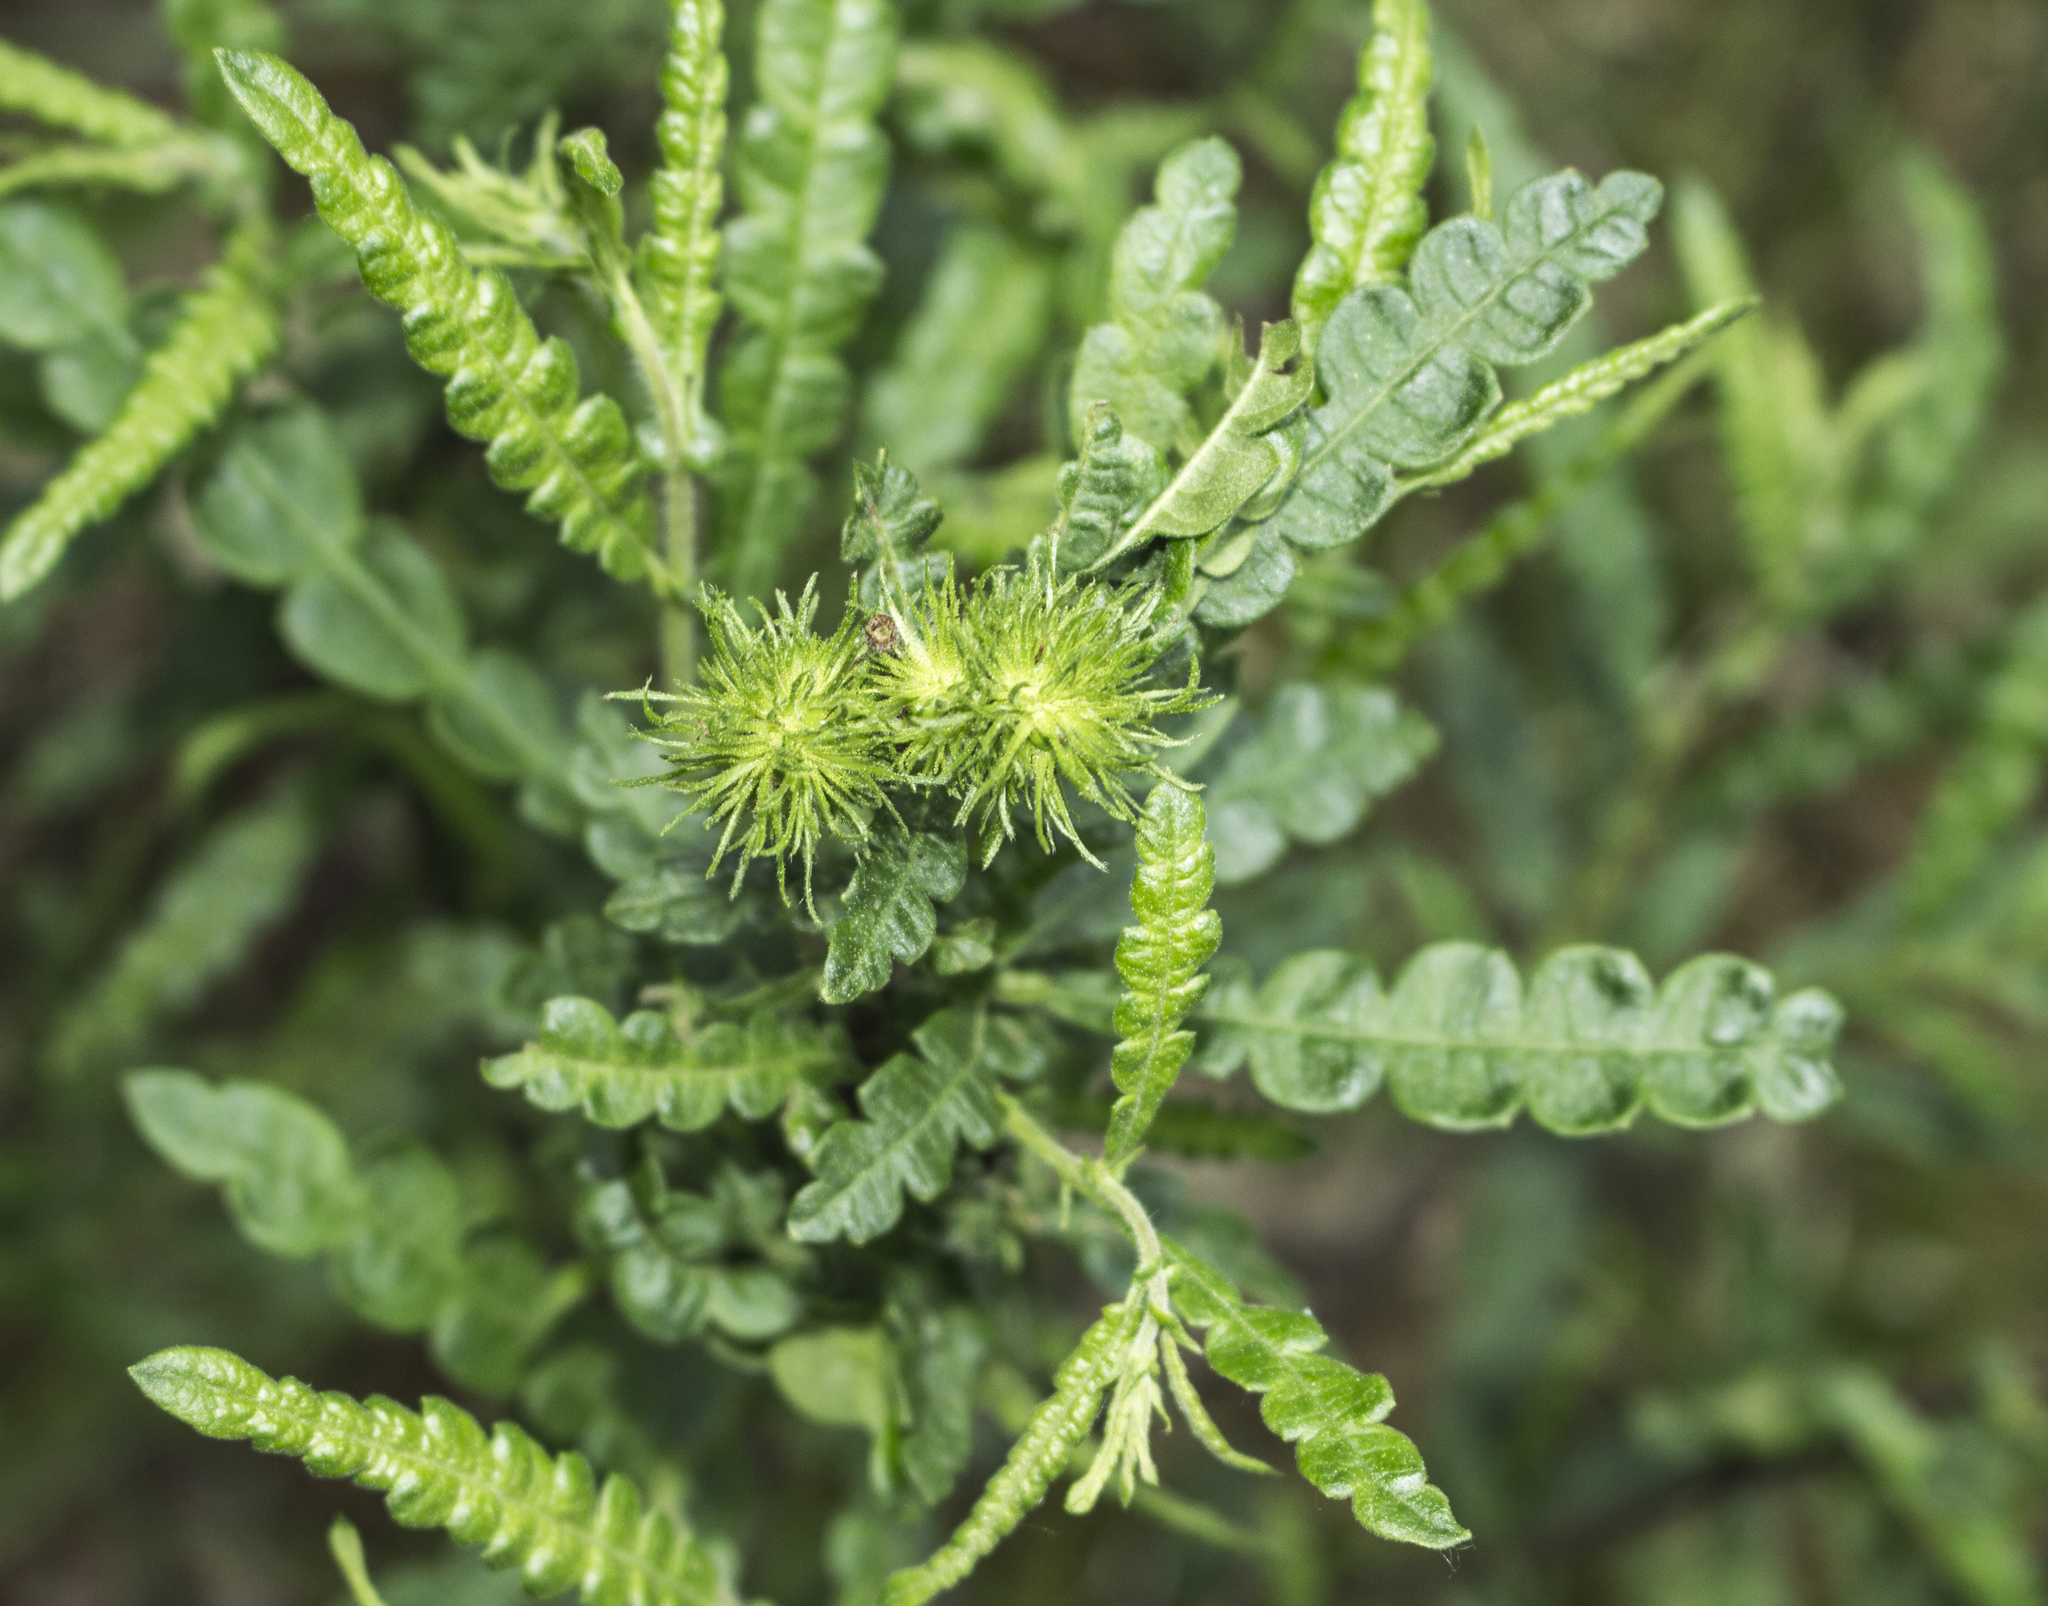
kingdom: Plantae
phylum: Tracheophyta
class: Magnoliopsida
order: Fagales
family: Myricaceae
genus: Comptonia
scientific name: Comptonia peregrina
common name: Sweet-fern
